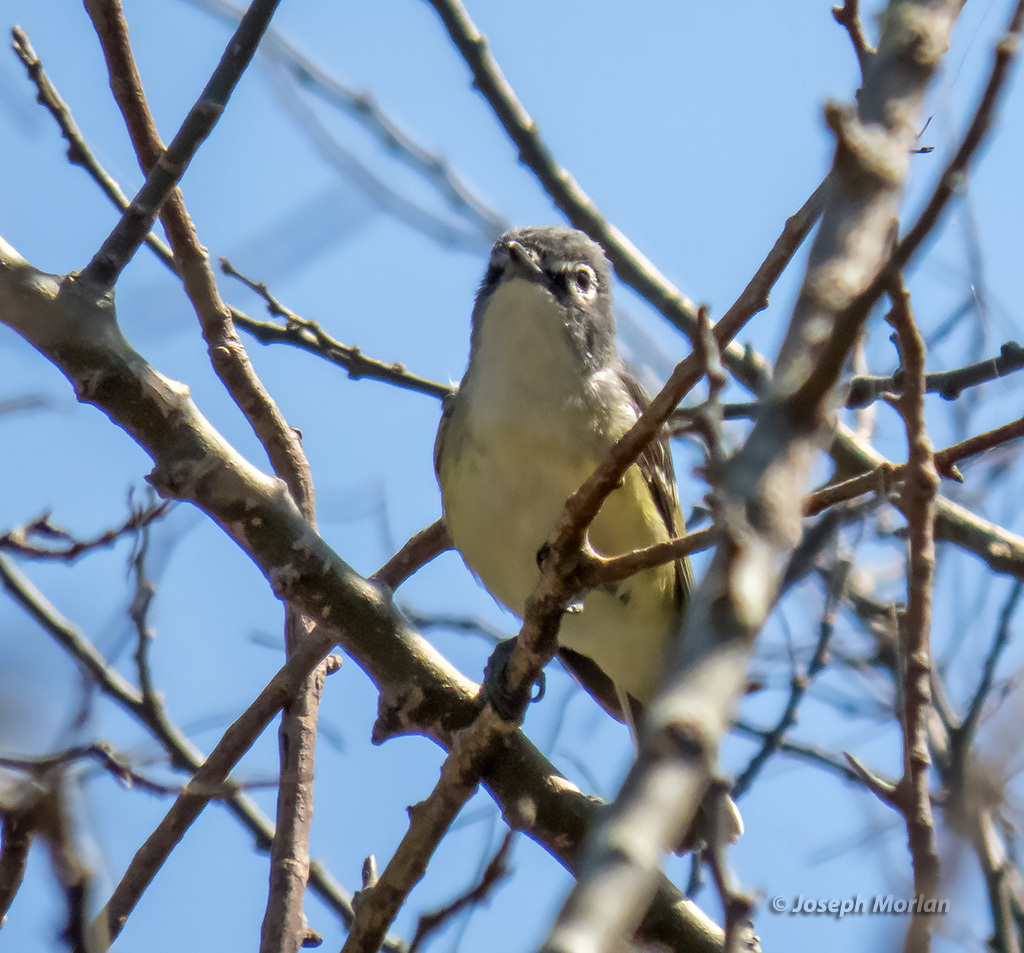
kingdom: Animalia
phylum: Chordata
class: Aves
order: Passeriformes
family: Vireonidae
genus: Vireo
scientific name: Vireo solitarius
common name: Blue-headed vireo
